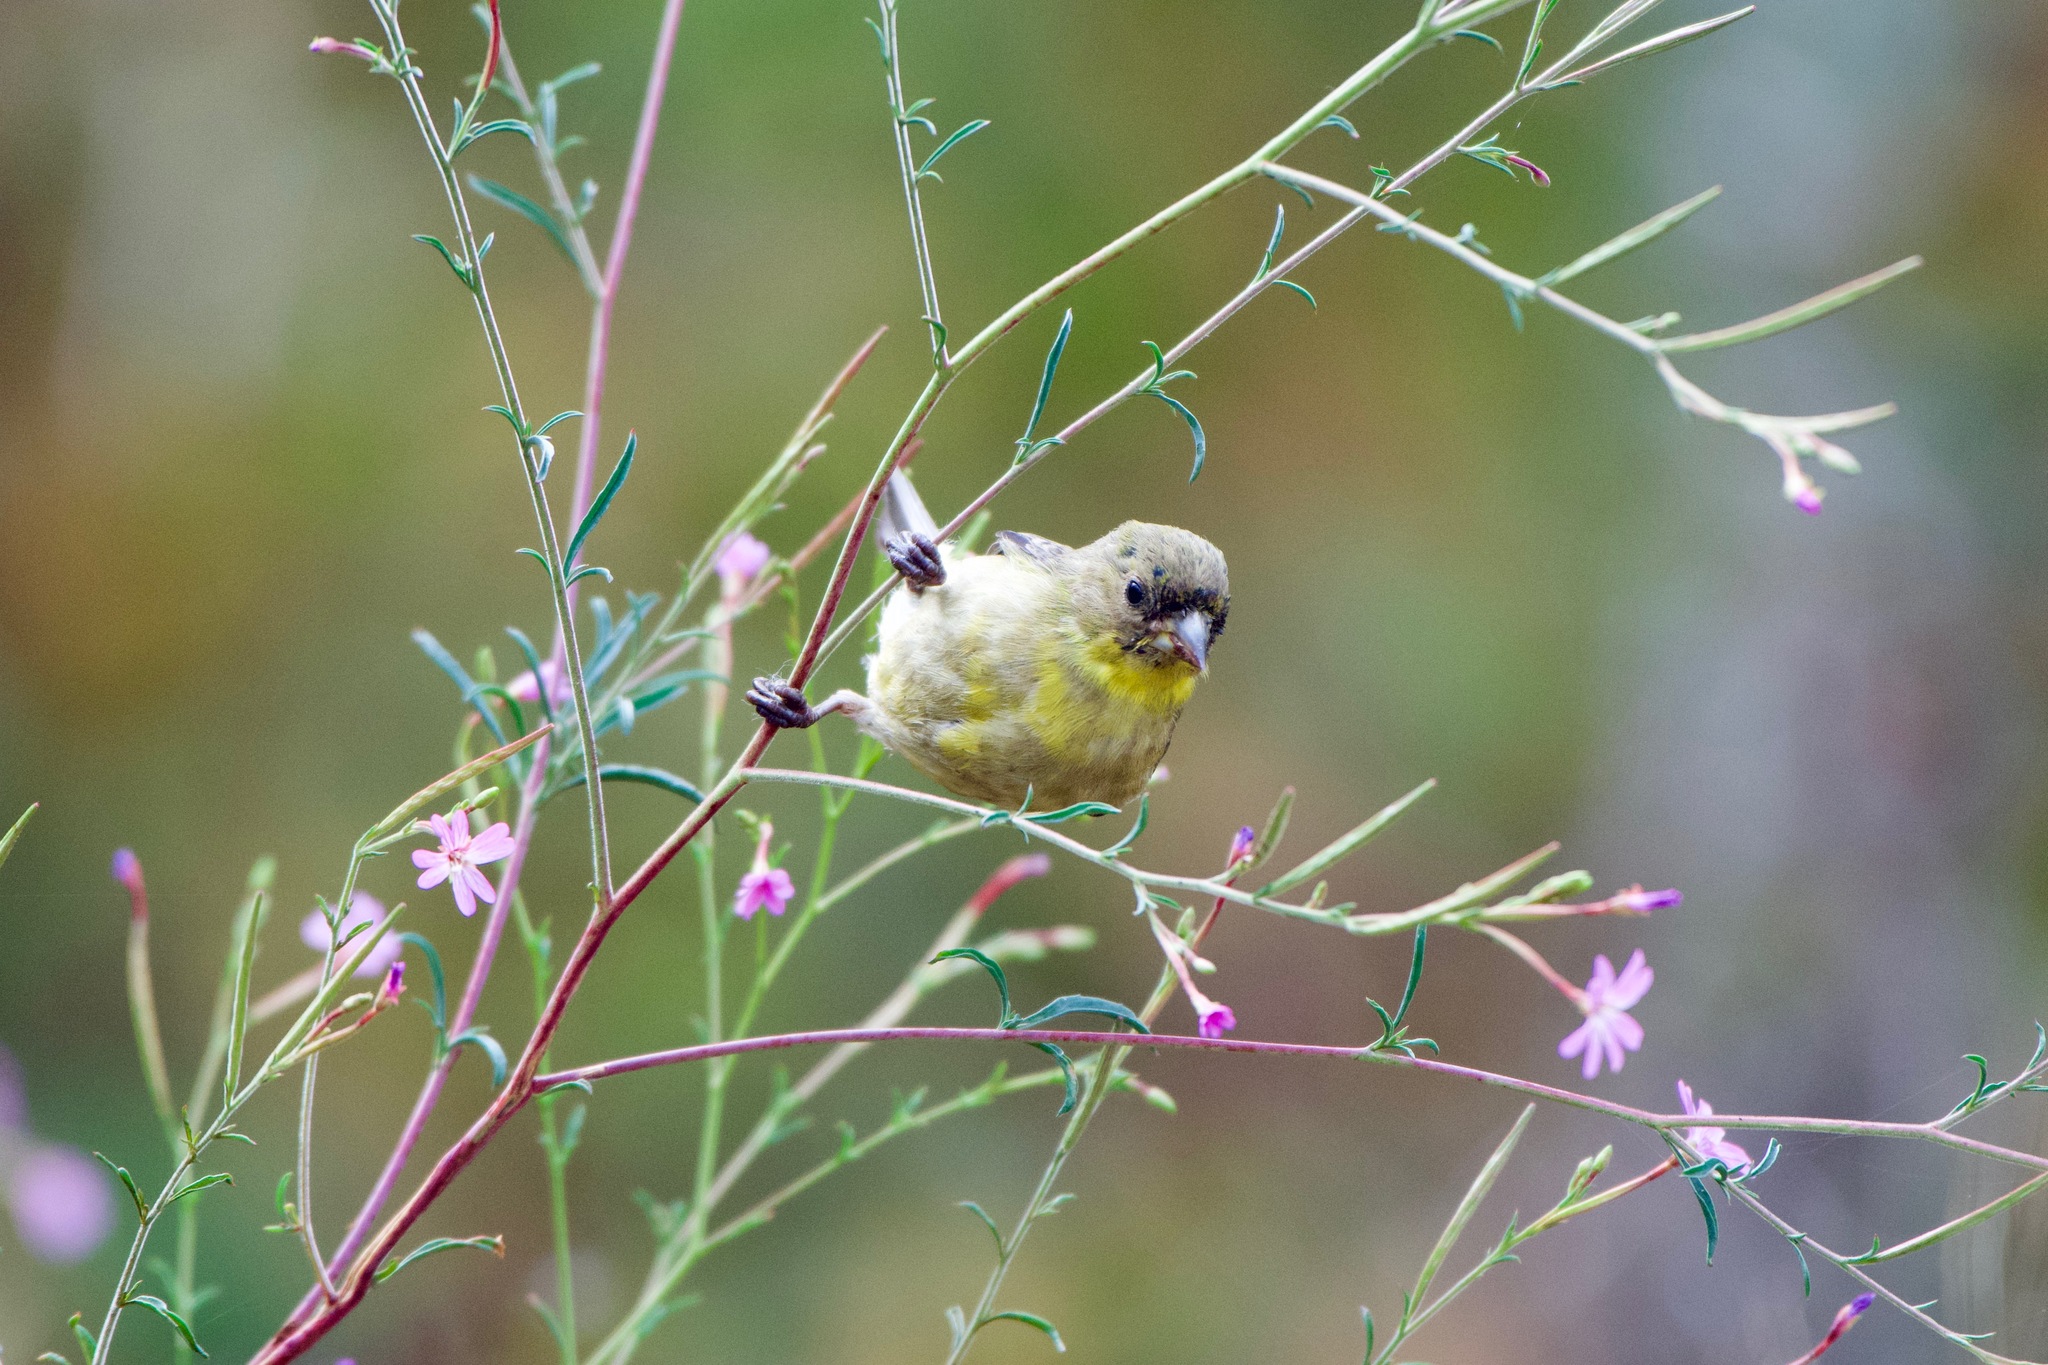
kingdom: Animalia
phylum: Chordata
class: Aves
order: Passeriformes
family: Fringillidae
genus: Spinus
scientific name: Spinus psaltria
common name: Lesser goldfinch
